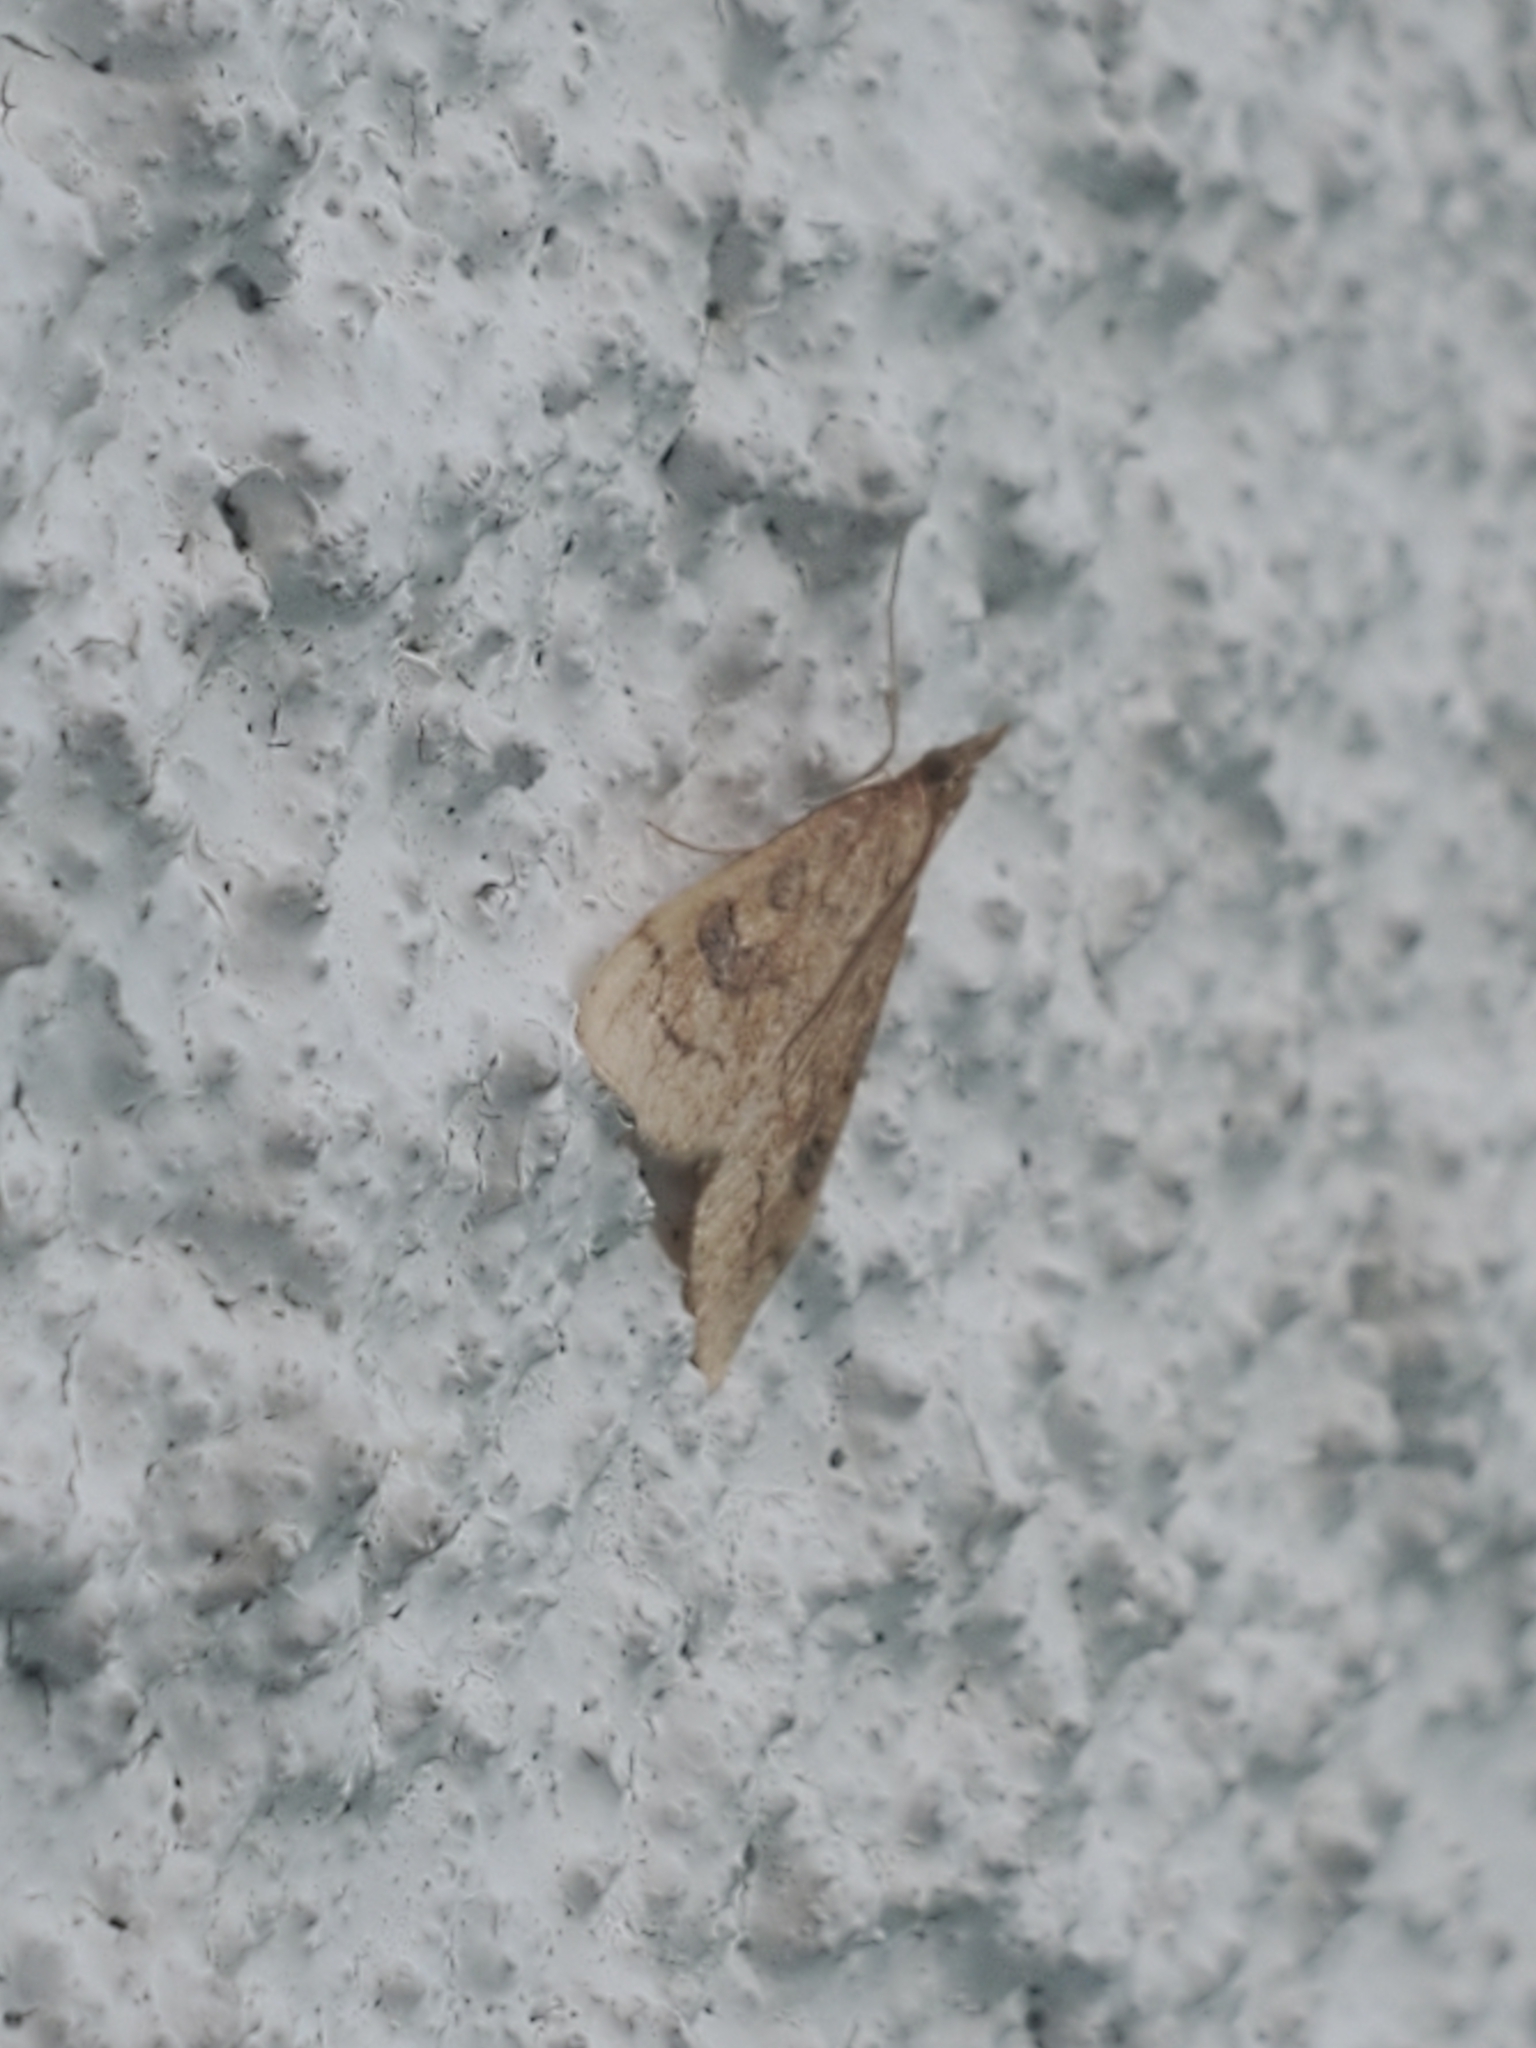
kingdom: Animalia
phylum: Arthropoda
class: Insecta
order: Lepidoptera
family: Crambidae
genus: Udea
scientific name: Udea profundalis
